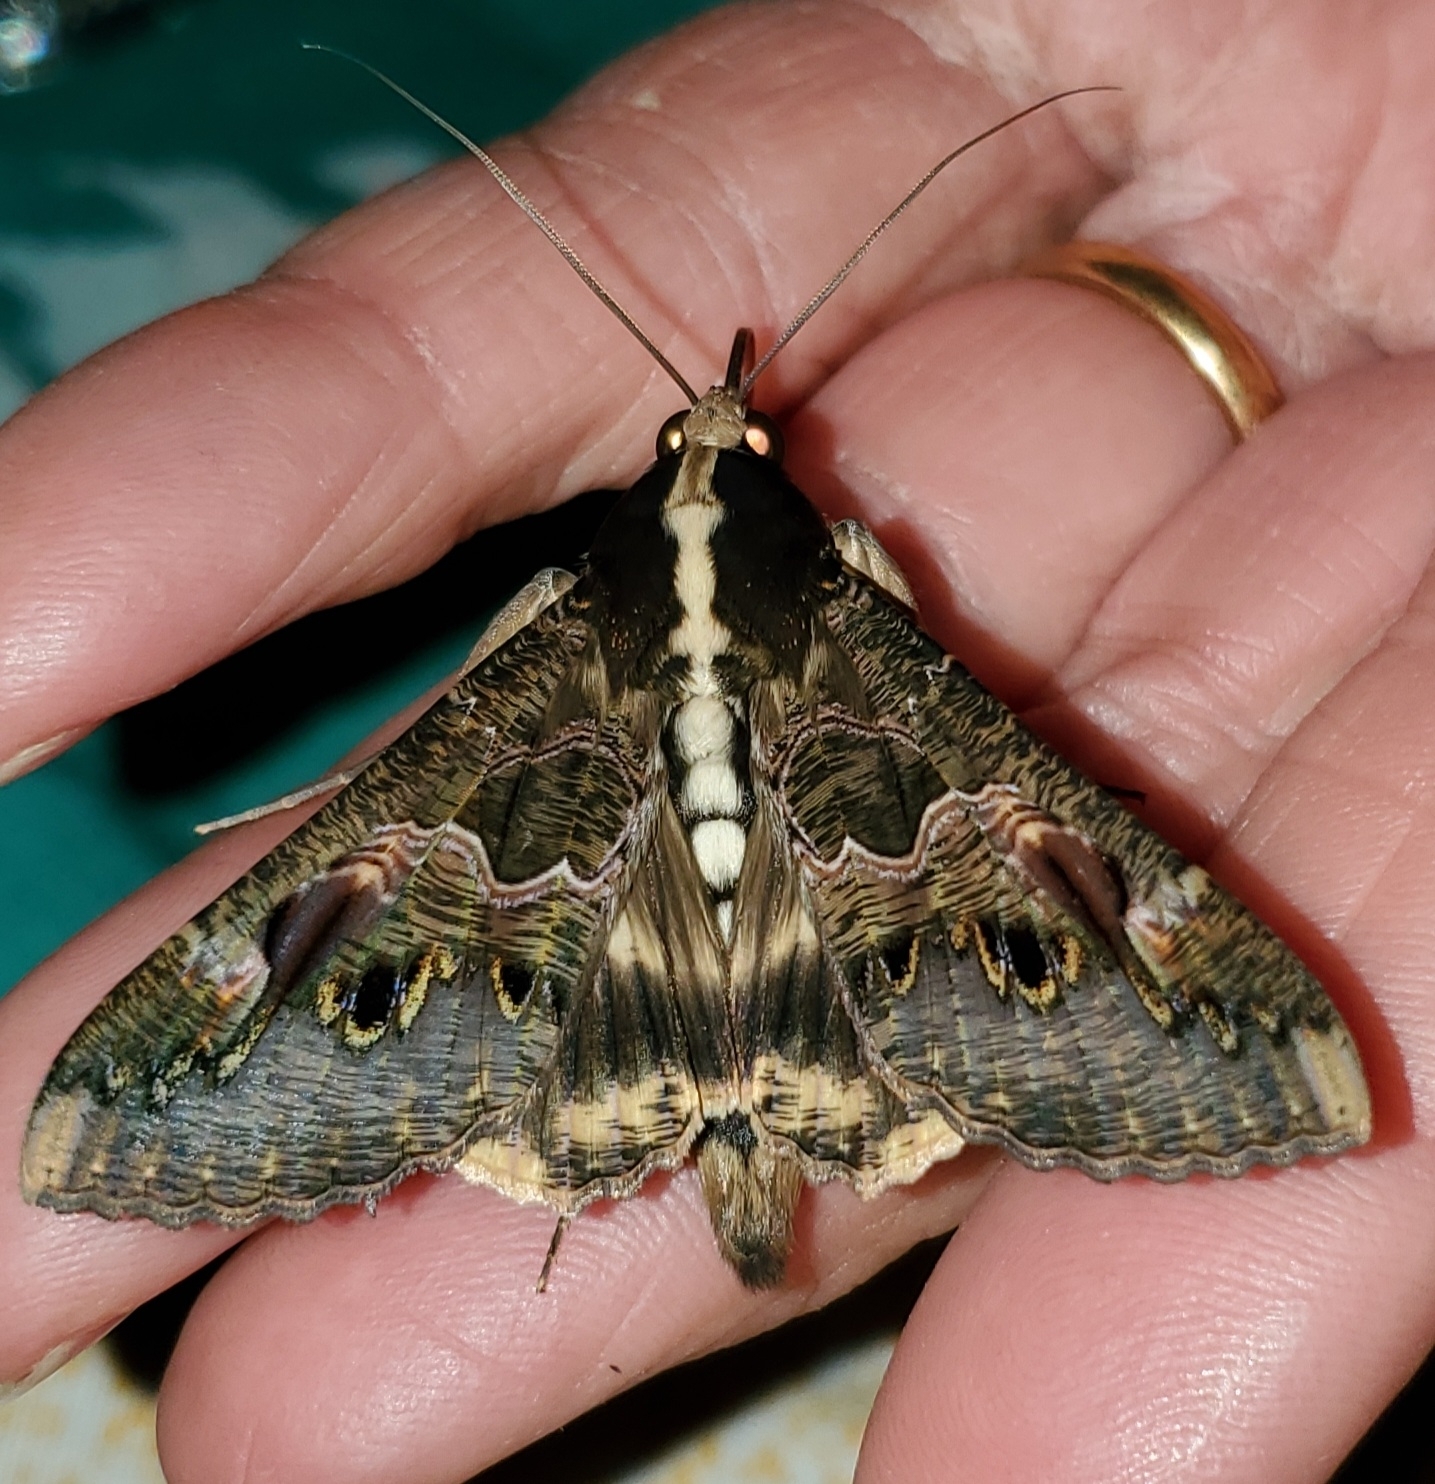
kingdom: Animalia
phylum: Arthropoda
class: Insecta
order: Lepidoptera
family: Erebidae
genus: Sphingomorpha
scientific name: Sphingomorpha chlorea
